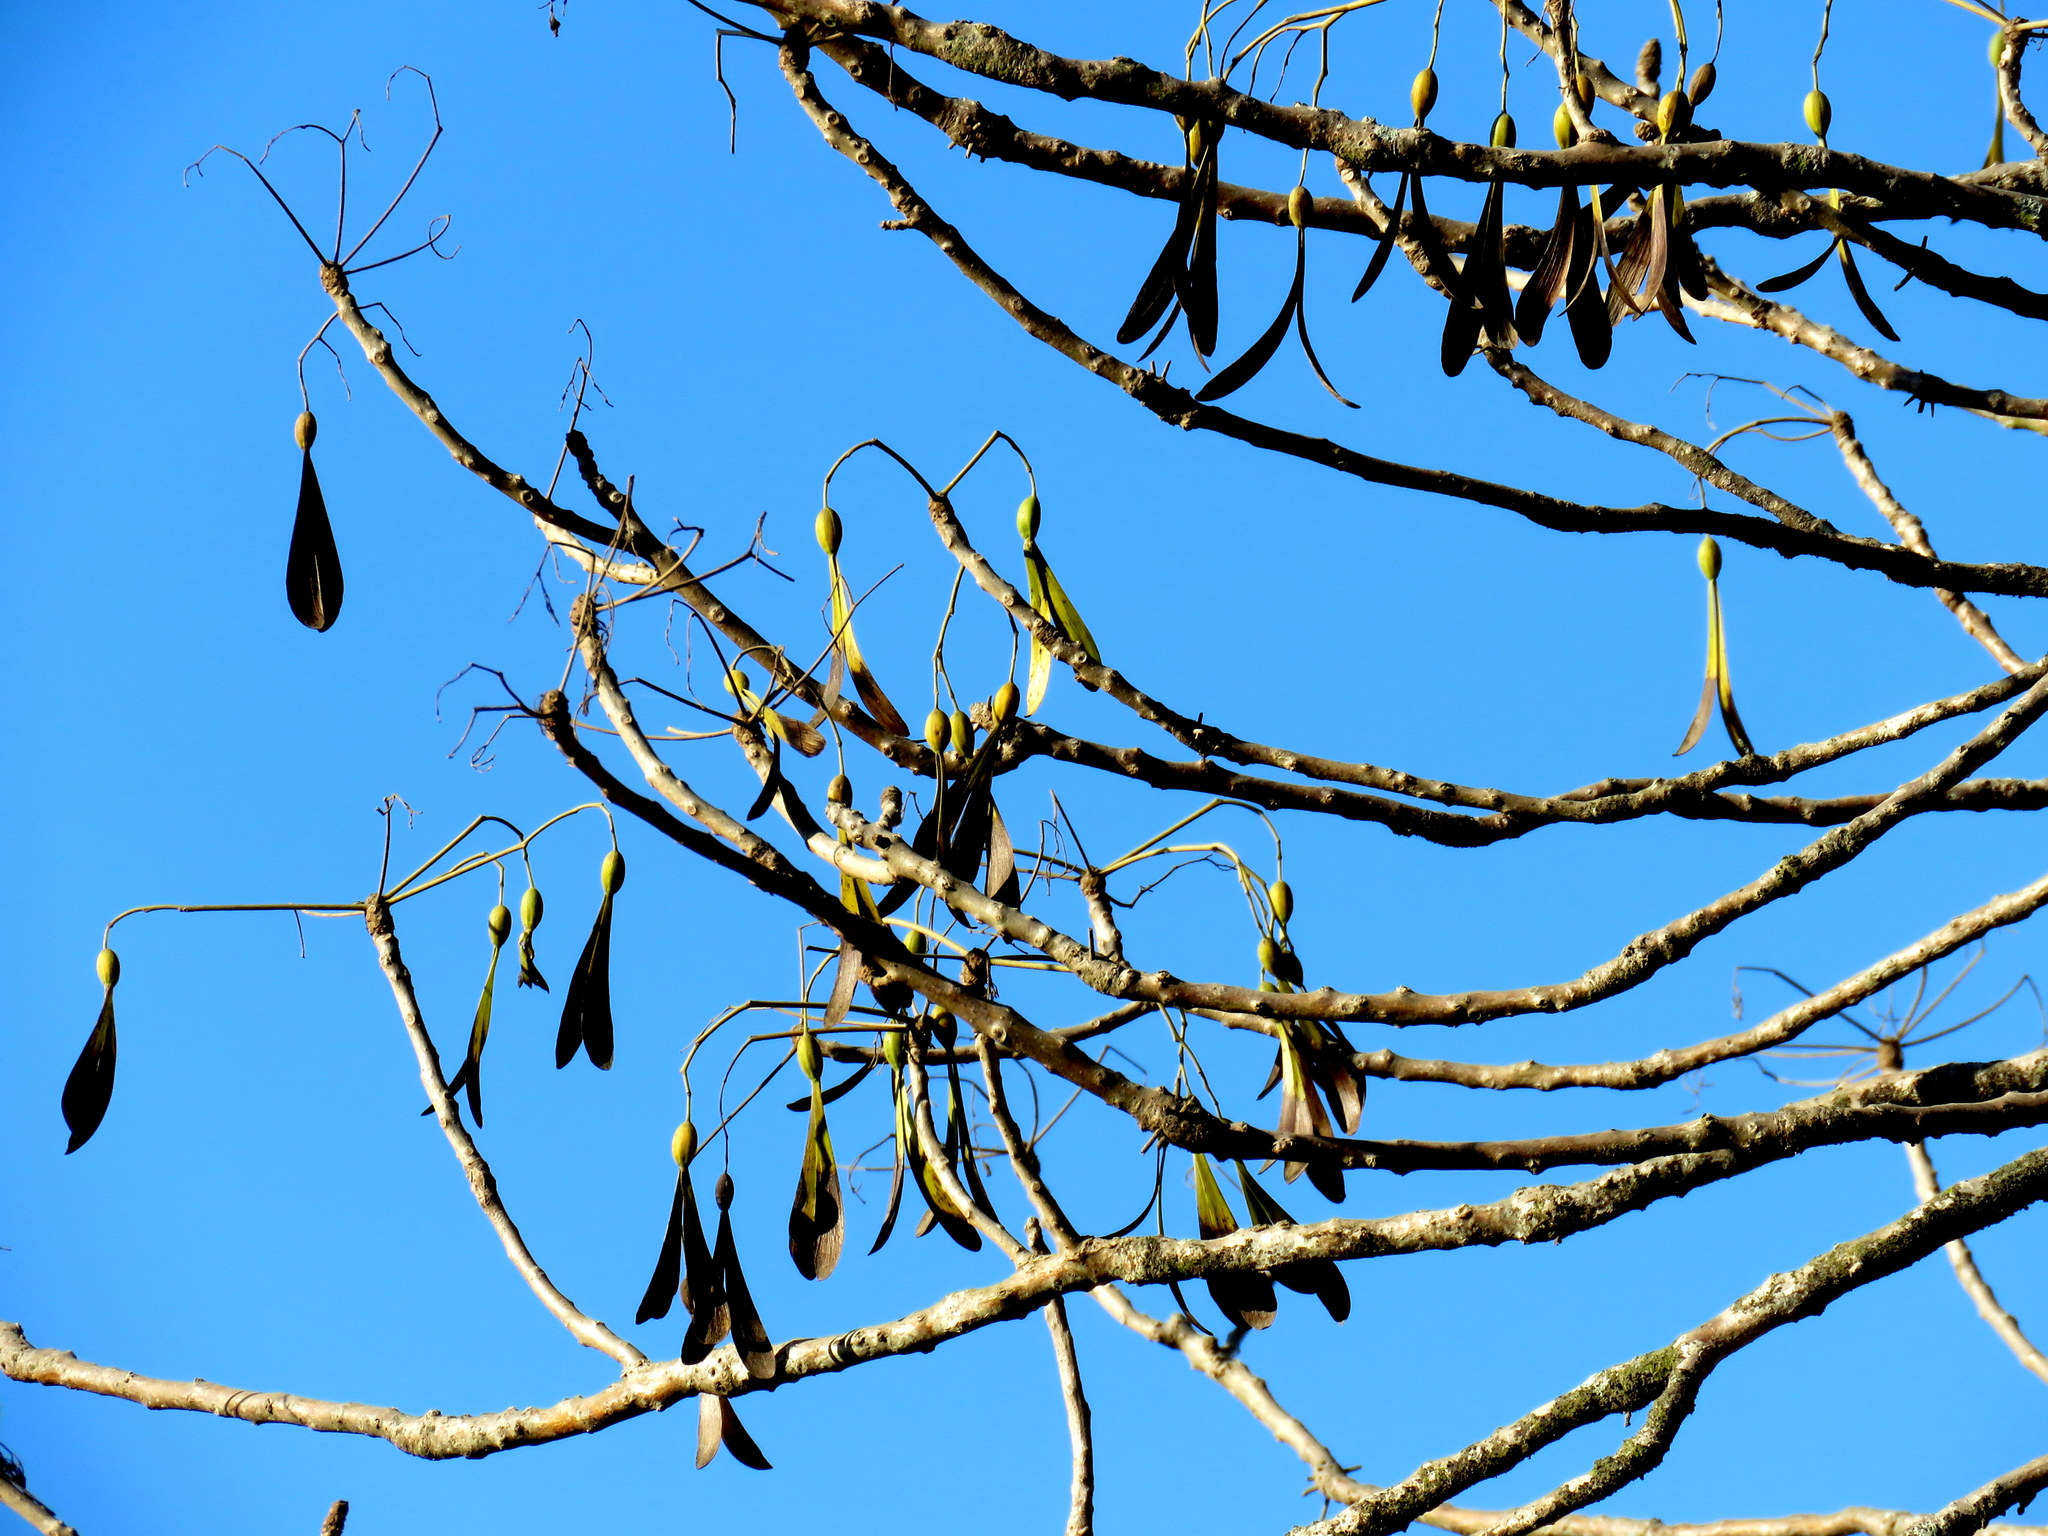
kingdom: Plantae
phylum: Tracheophyta
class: Magnoliopsida
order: Laurales
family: Hernandiaceae
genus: Gyrocarpus
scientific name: Gyrocarpus jatrophifolius
